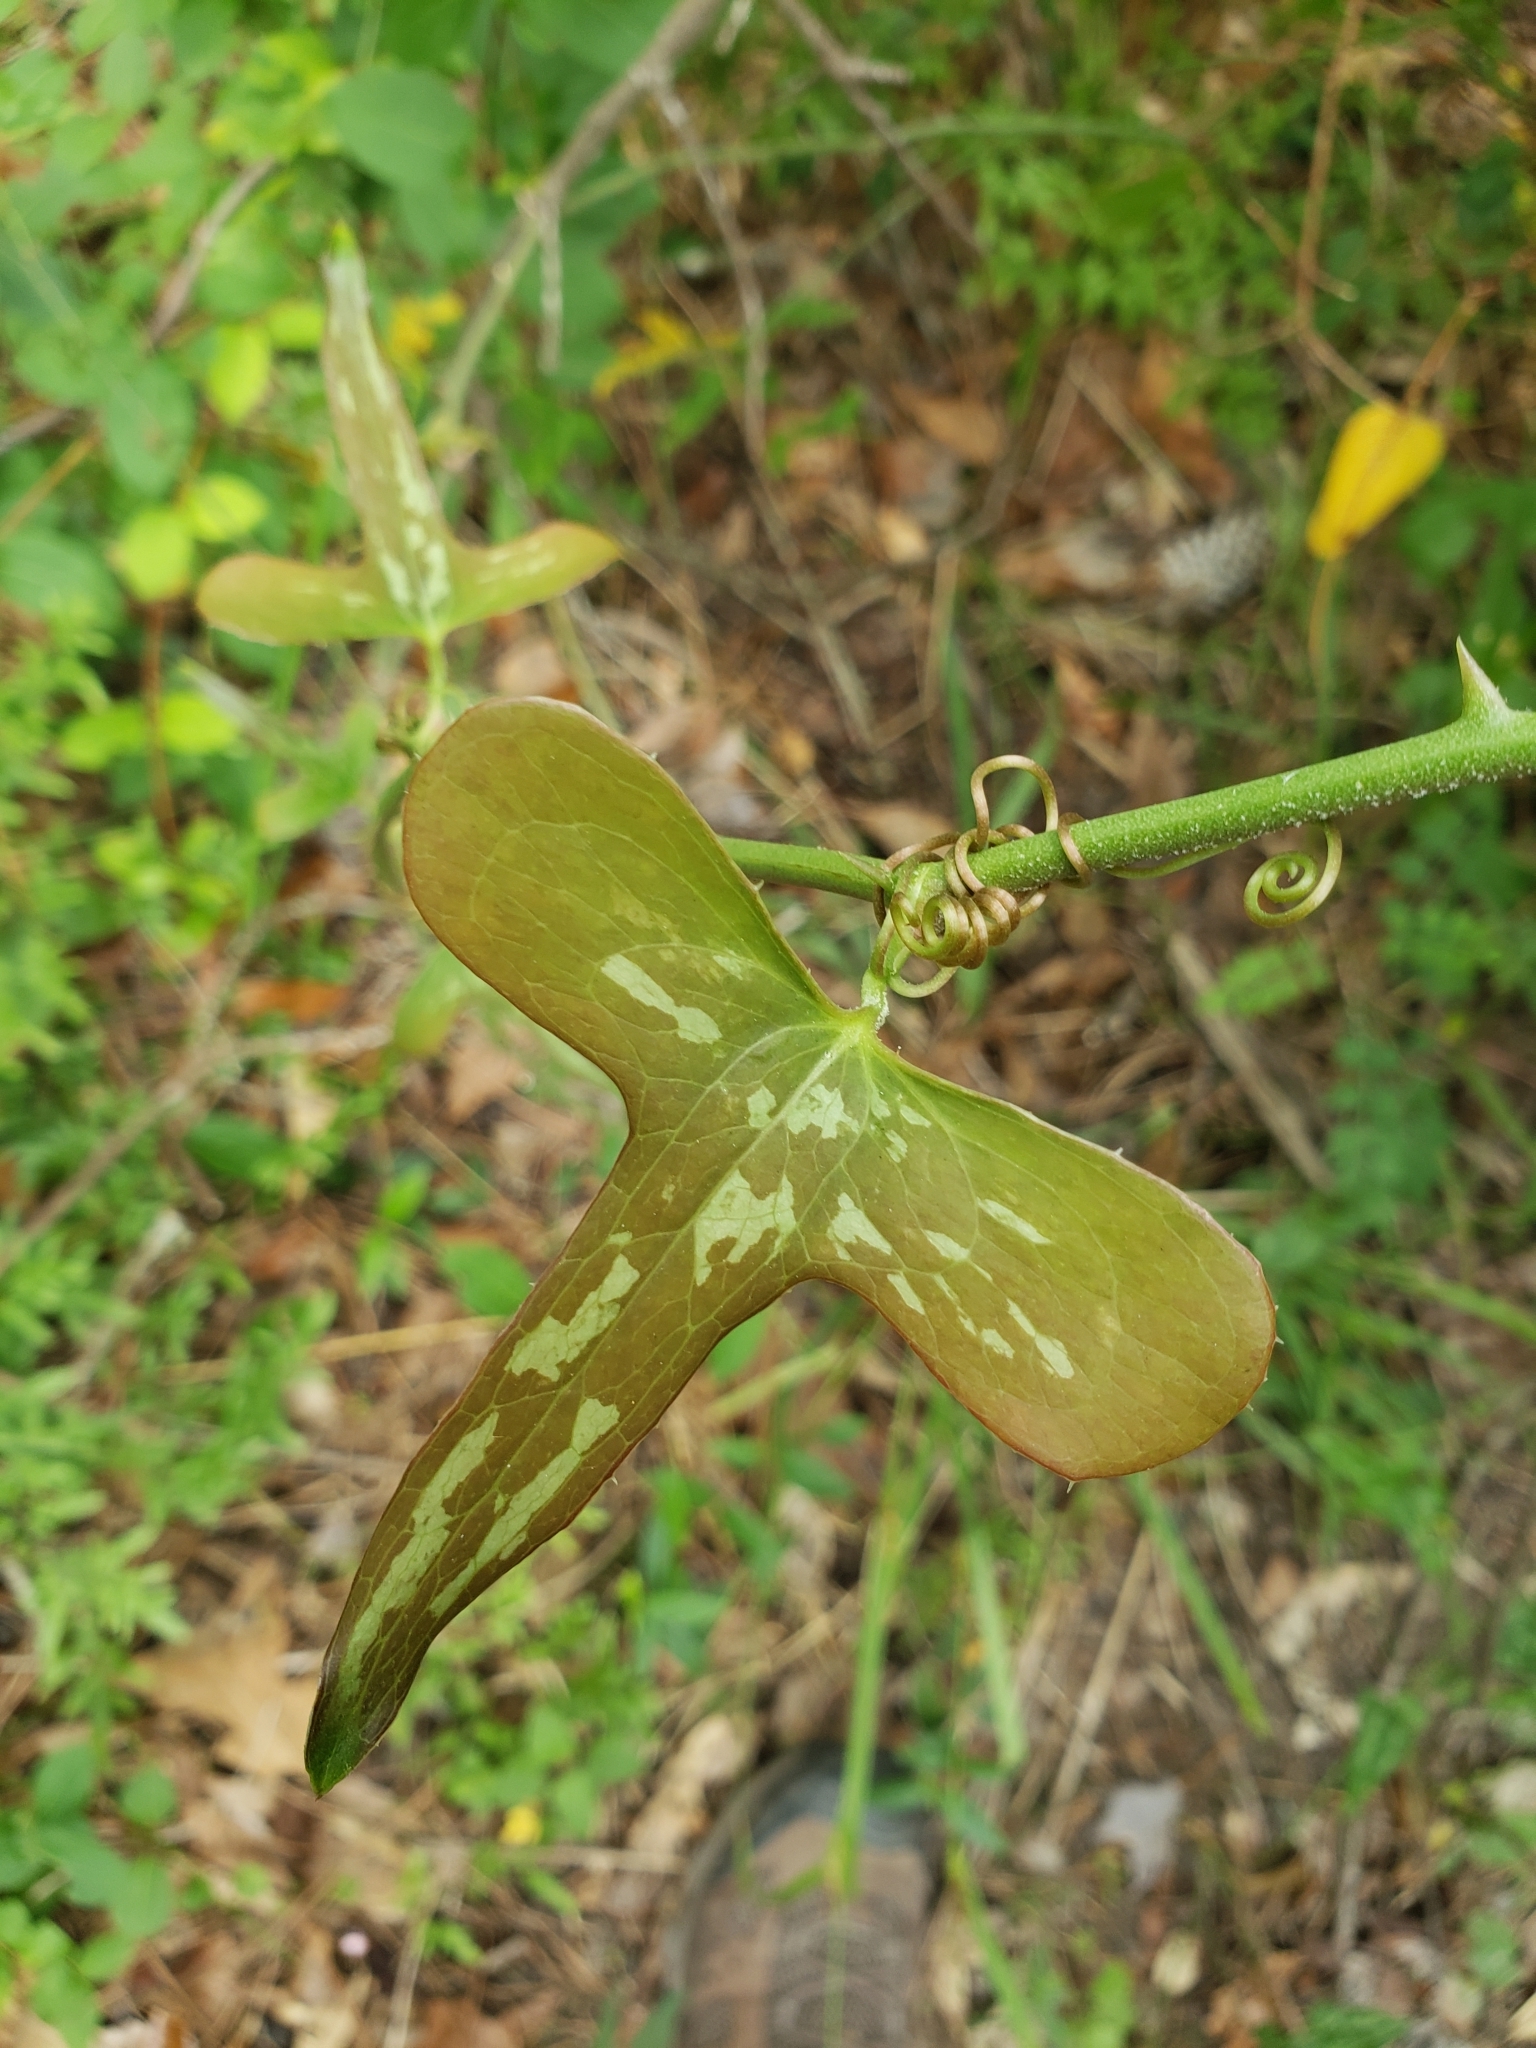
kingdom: Plantae
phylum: Tracheophyta
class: Liliopsida
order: Liliales
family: Smilacaceae
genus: Smilax
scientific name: Smilax bona-nox
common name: Catbrier
